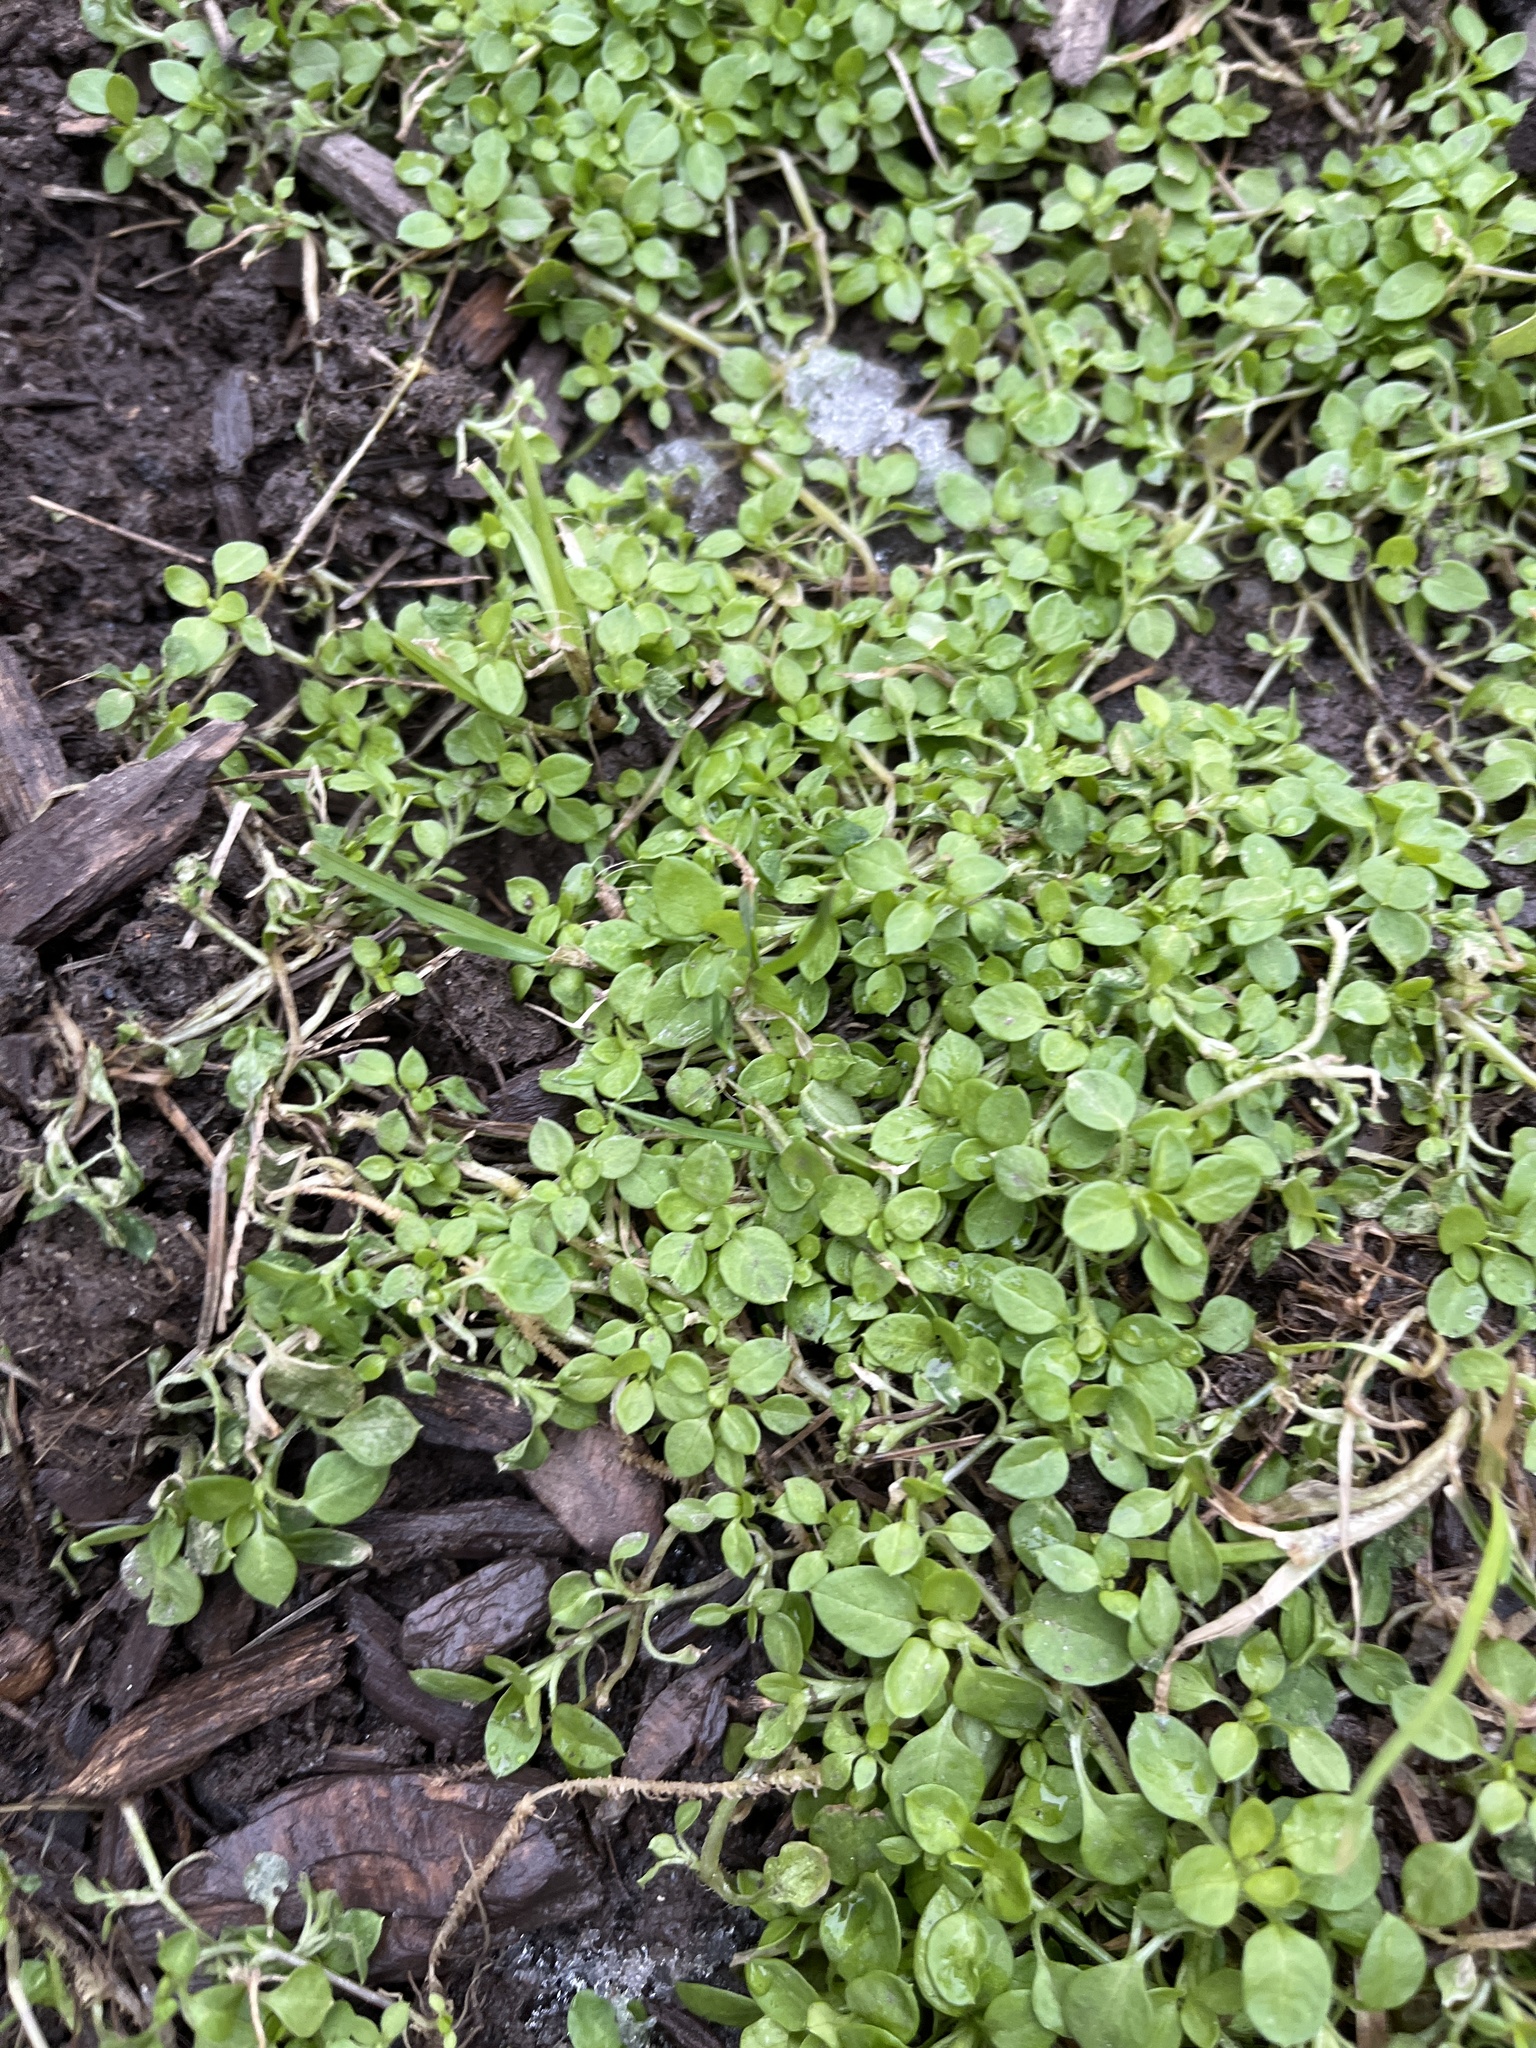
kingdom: Plantae
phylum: Tracheophyta
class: Magnoliopsida
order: Caryophyllales
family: Caryophyllaceae
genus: Stellaria
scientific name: Stellaria media
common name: Common chickweed
